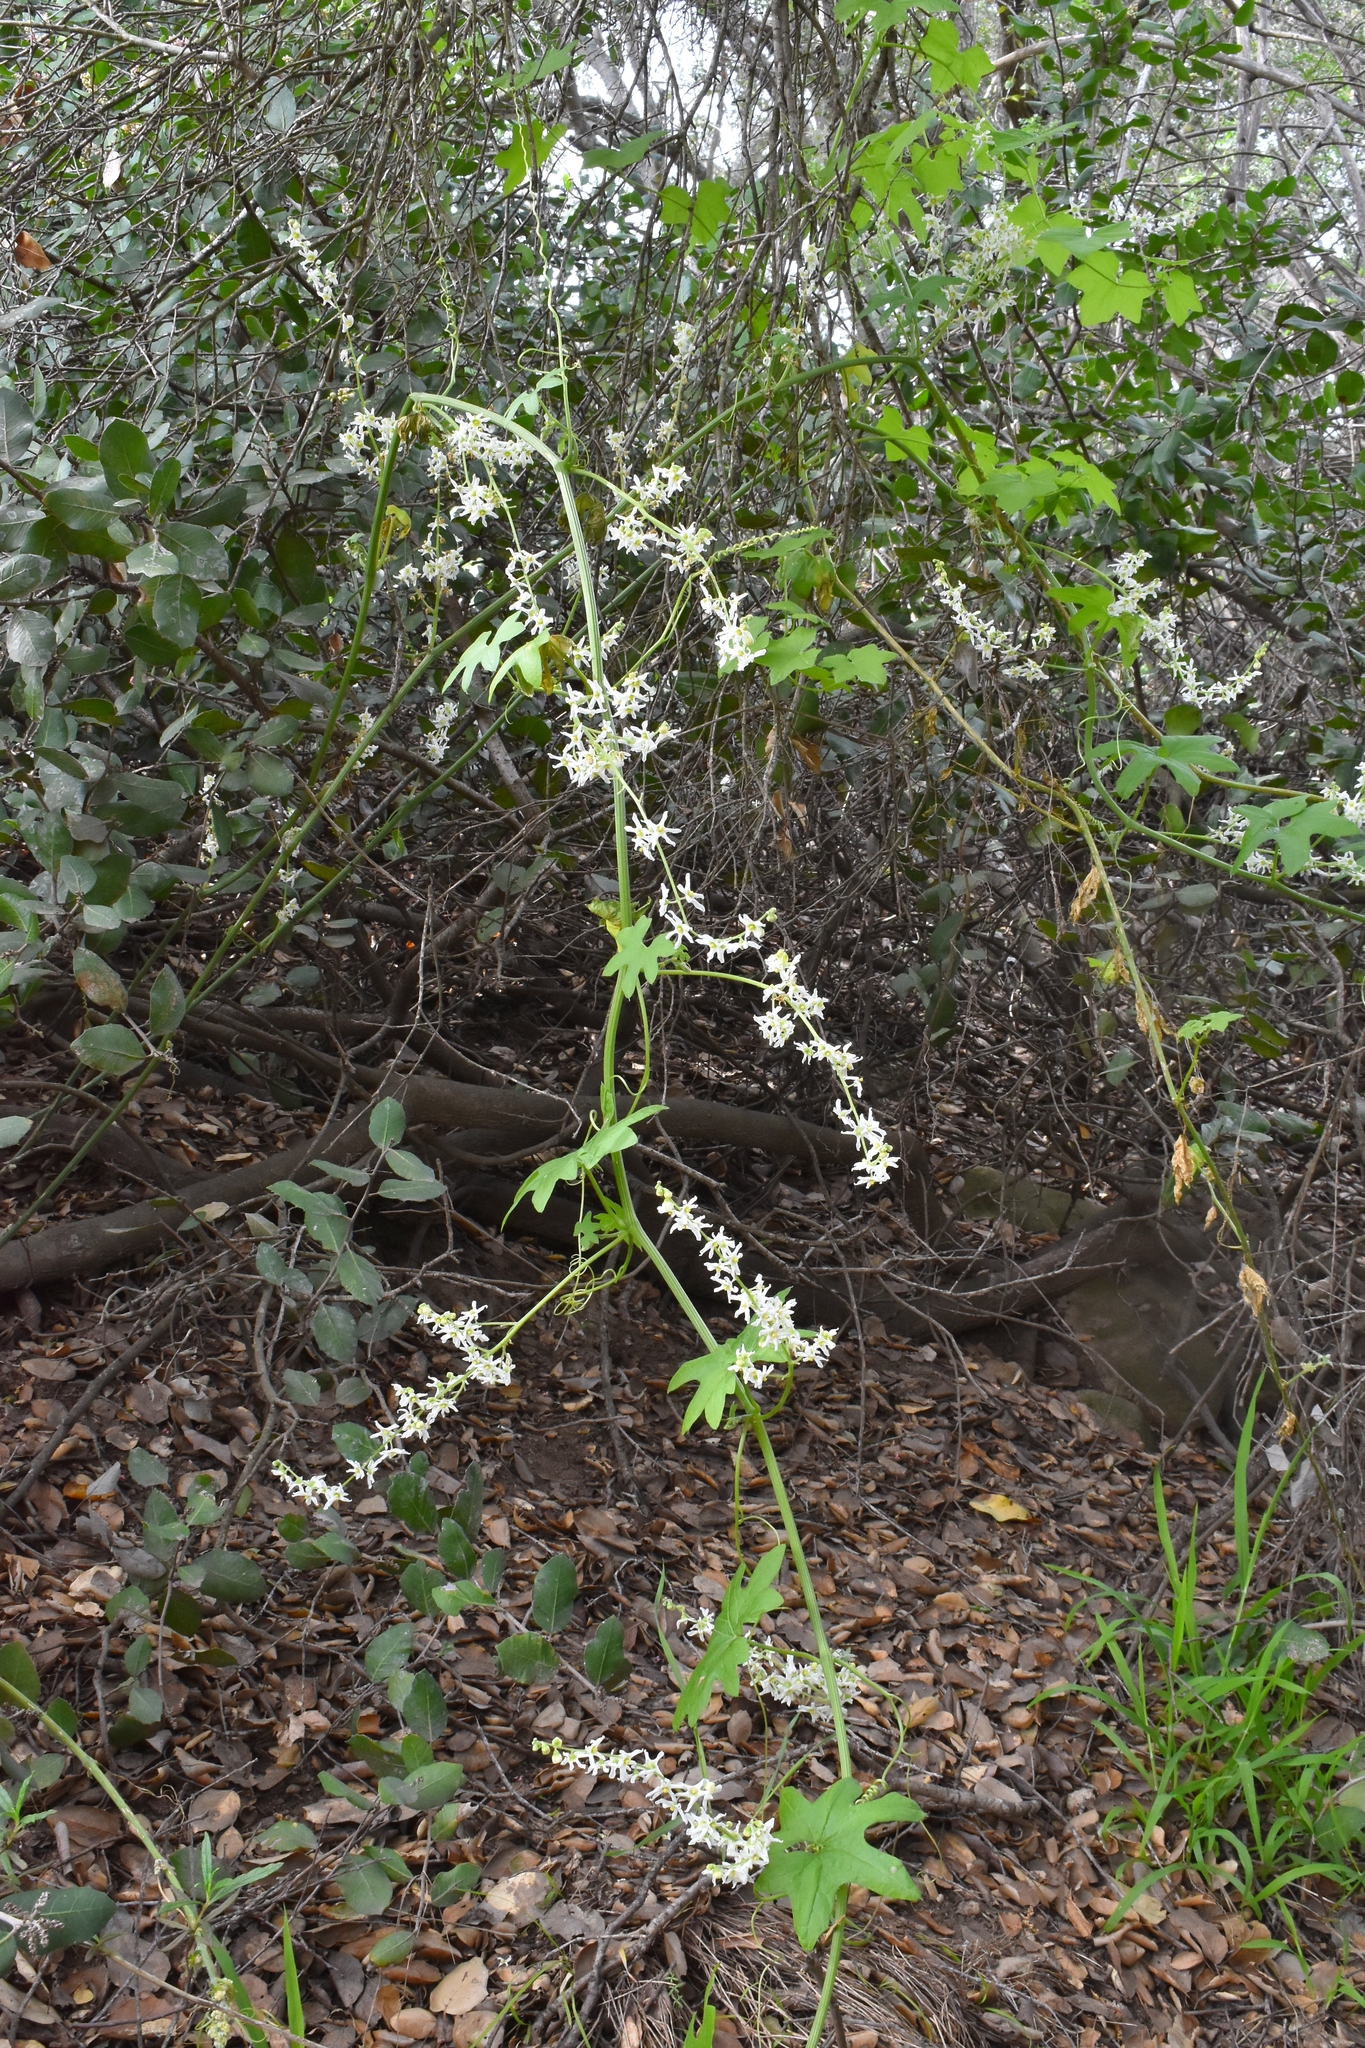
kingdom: Plantae
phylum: Tracheophyta
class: Magnoliopsida
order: Cucurbitales
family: Cucurbitaceae
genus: Marah
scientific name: Marah macrocarpa
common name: Cucamonga manroot
